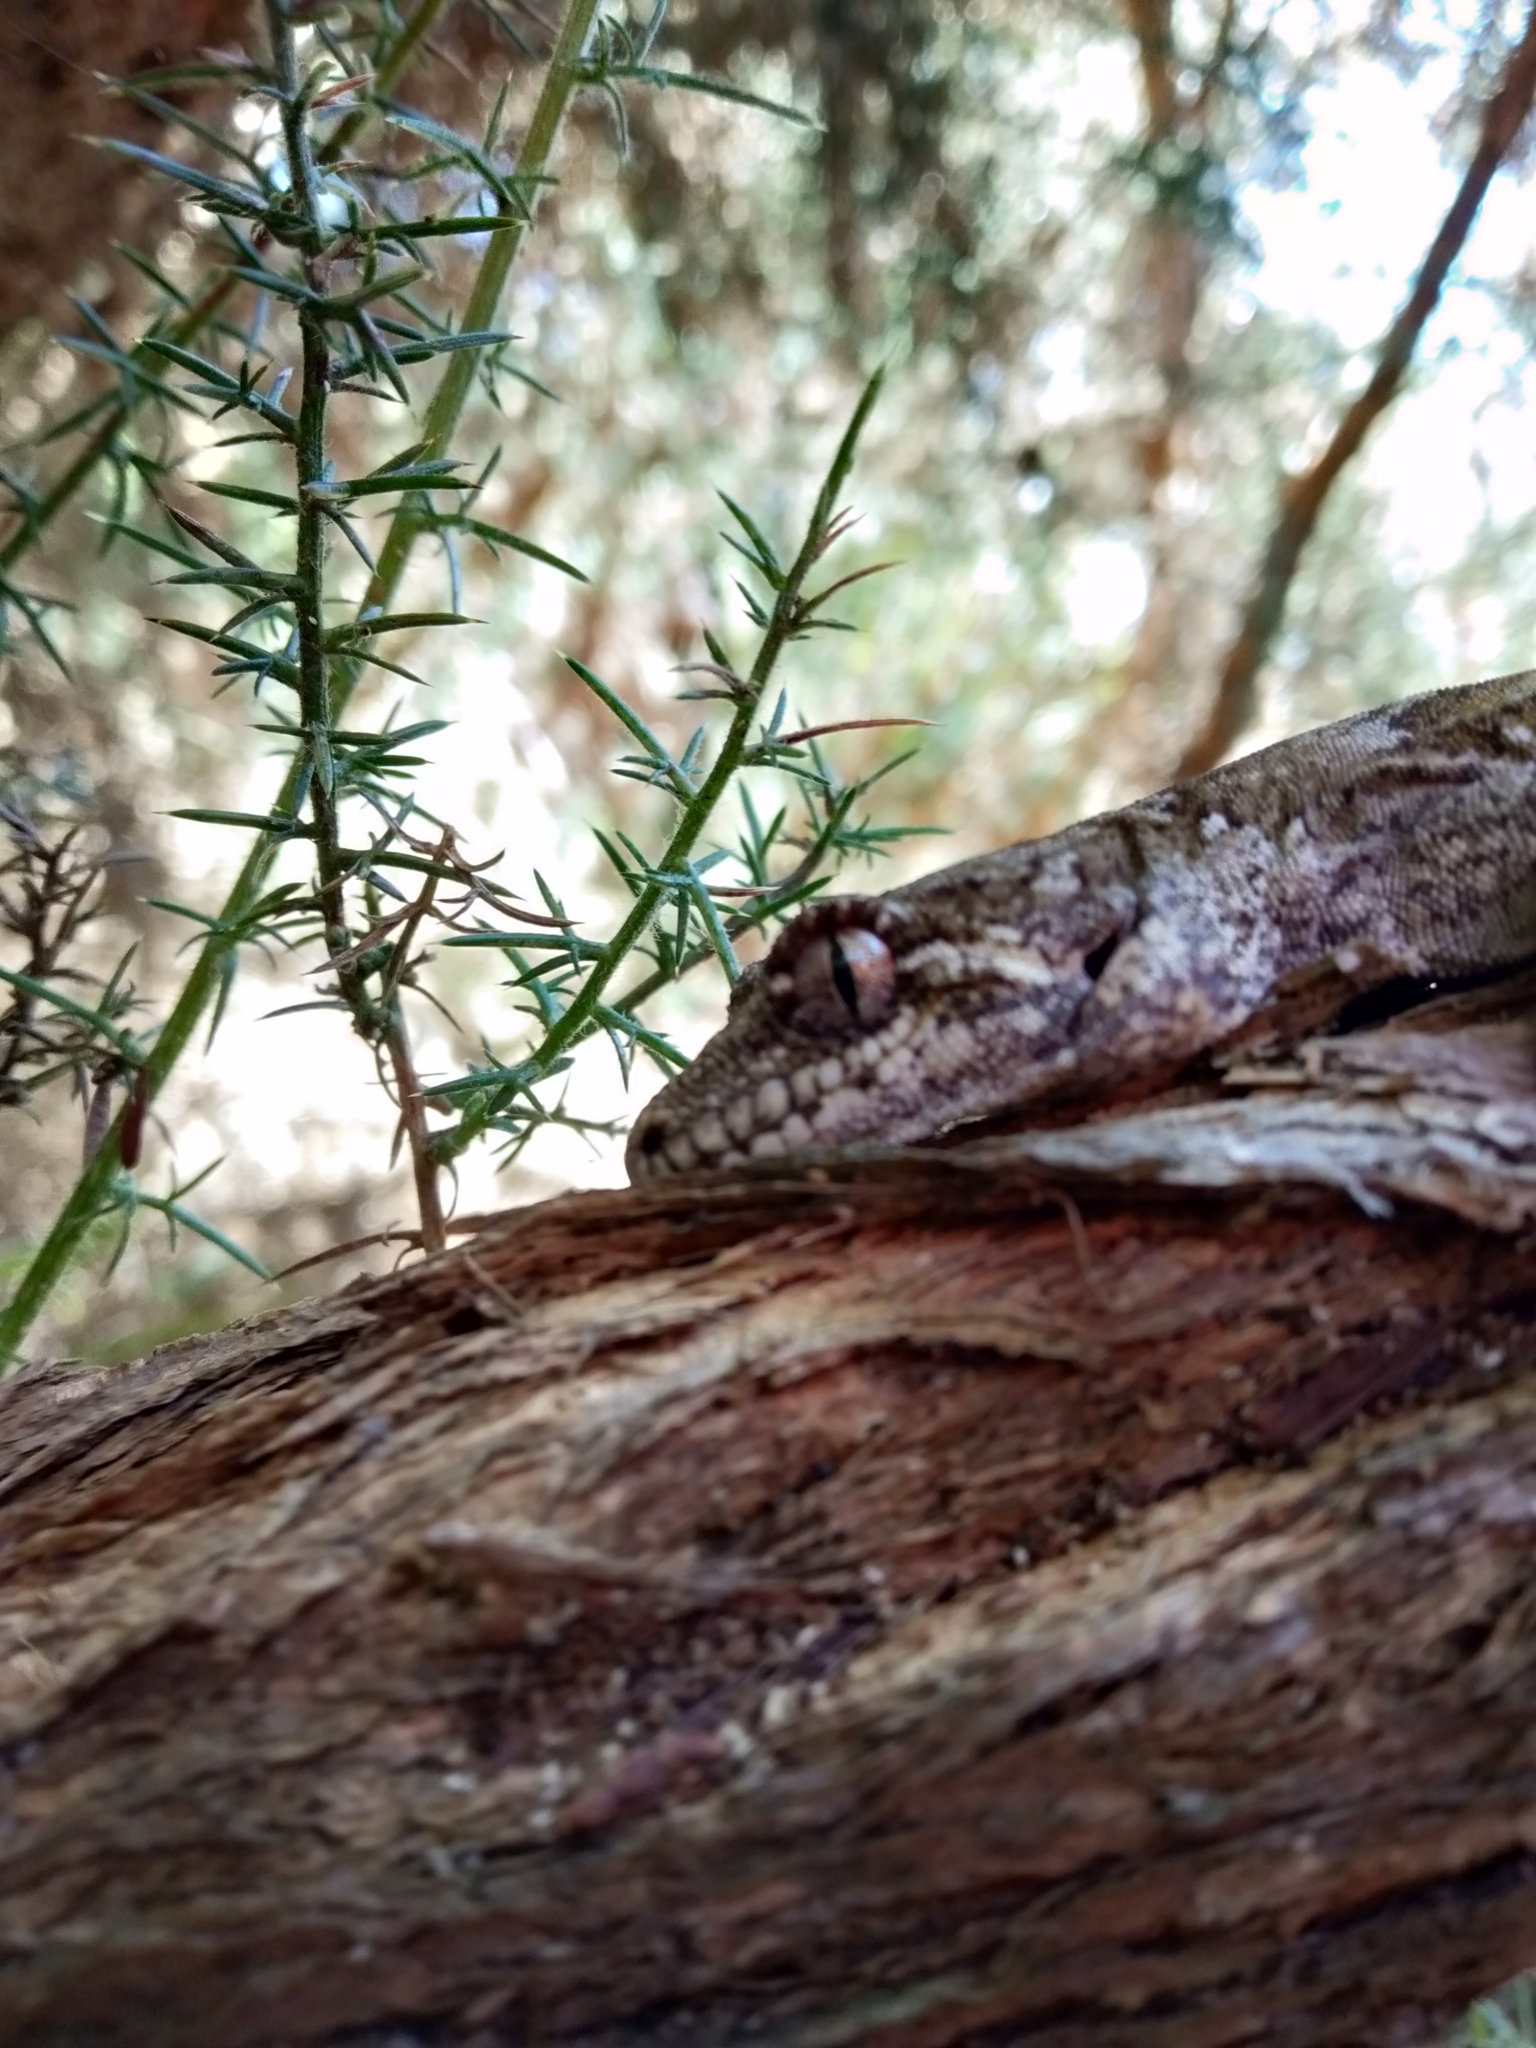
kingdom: Animalia
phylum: Chordata
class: Squamata
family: Diplodactylidae
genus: Mokopirirakau
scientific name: Mokopirirakau granulatus
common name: Forest gecko
